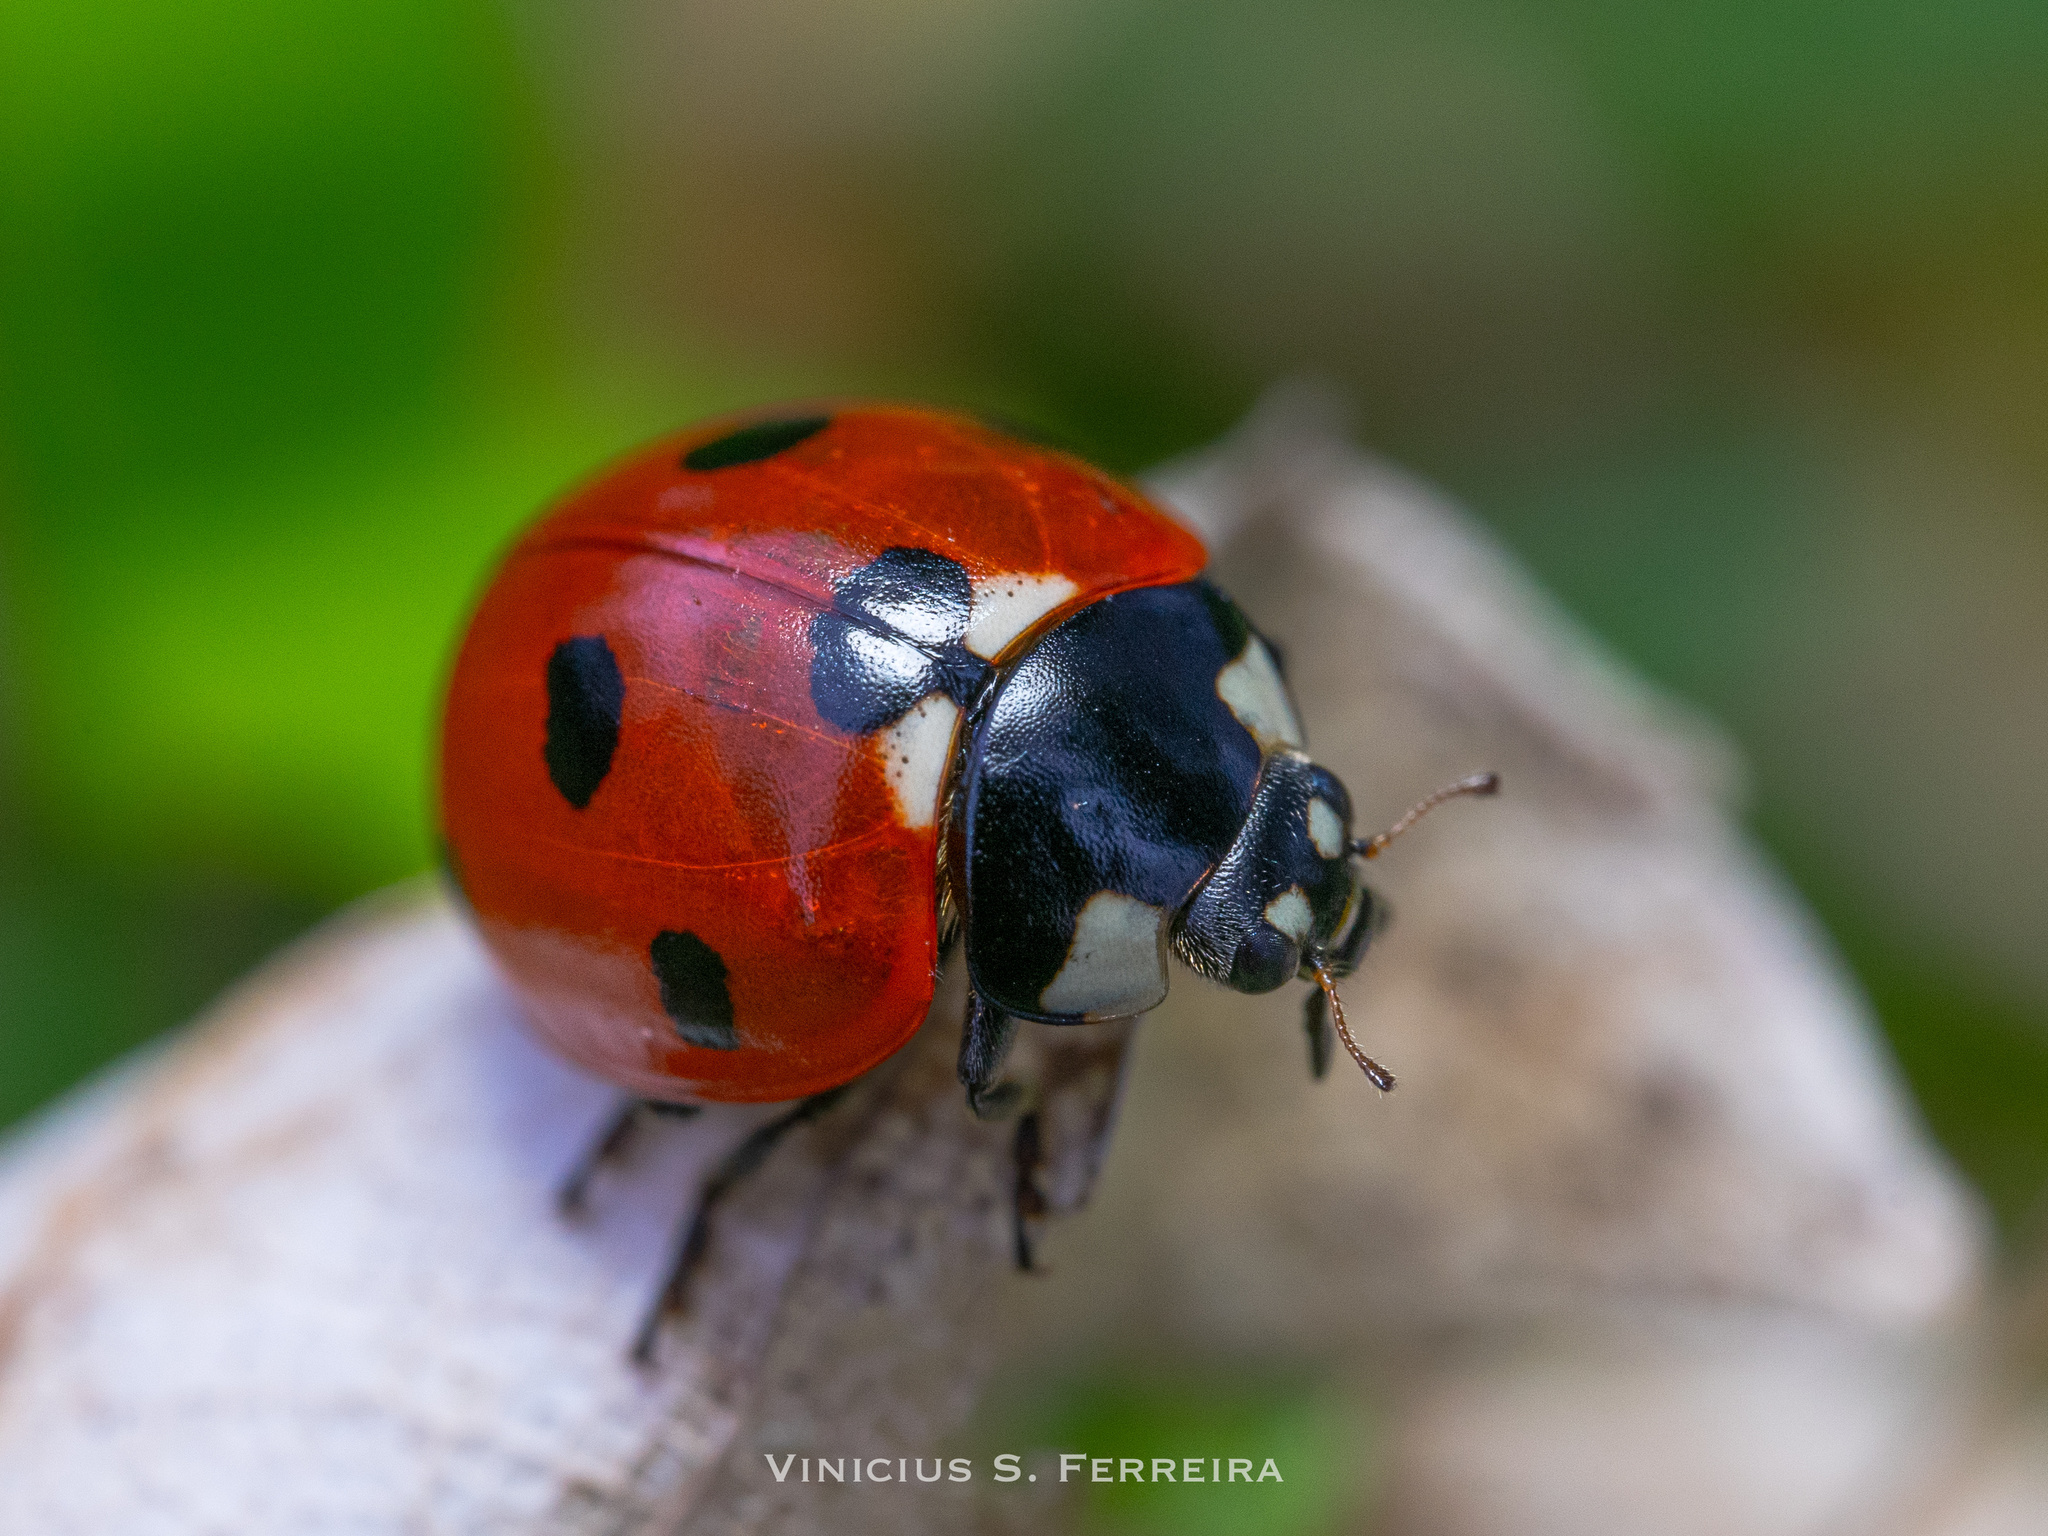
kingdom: Animalia
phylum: Arthropoda
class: Insecta
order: Coleoptera
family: Coccinellidae
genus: Coccinella
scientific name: Coccinella septempunctata
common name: Sevenspotted lady beetle
